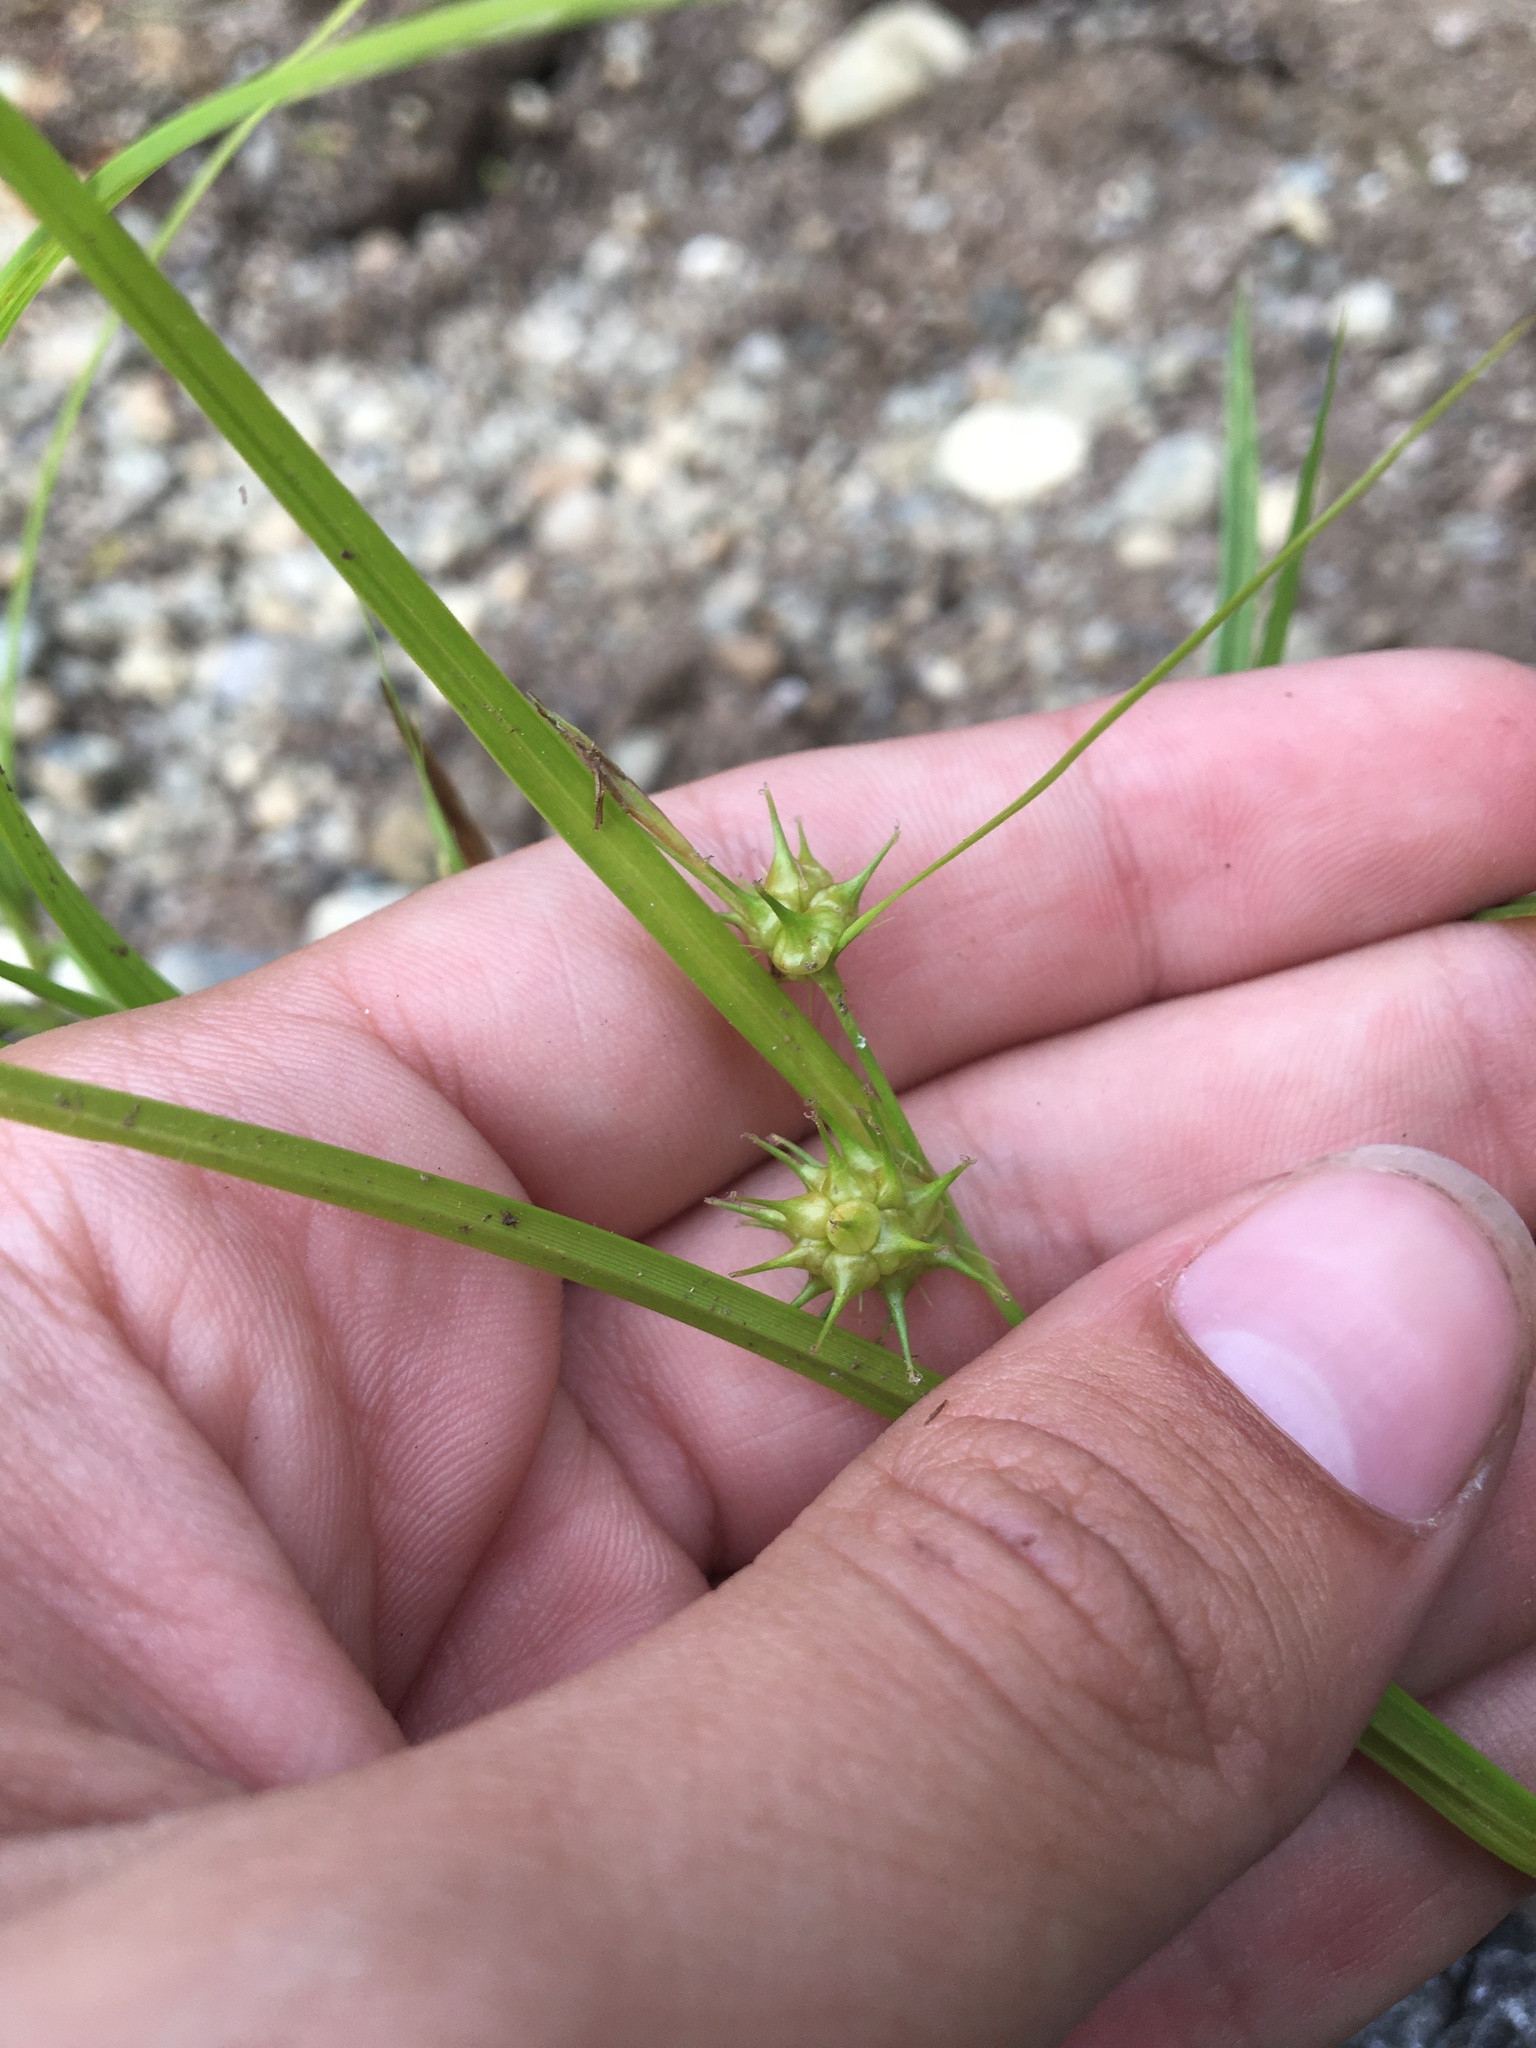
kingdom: Plantae
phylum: Tracheophyta
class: Liliopsida
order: Poales
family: Cyperaceae
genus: Carex
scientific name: Carex lurida
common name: Sallow sedge
